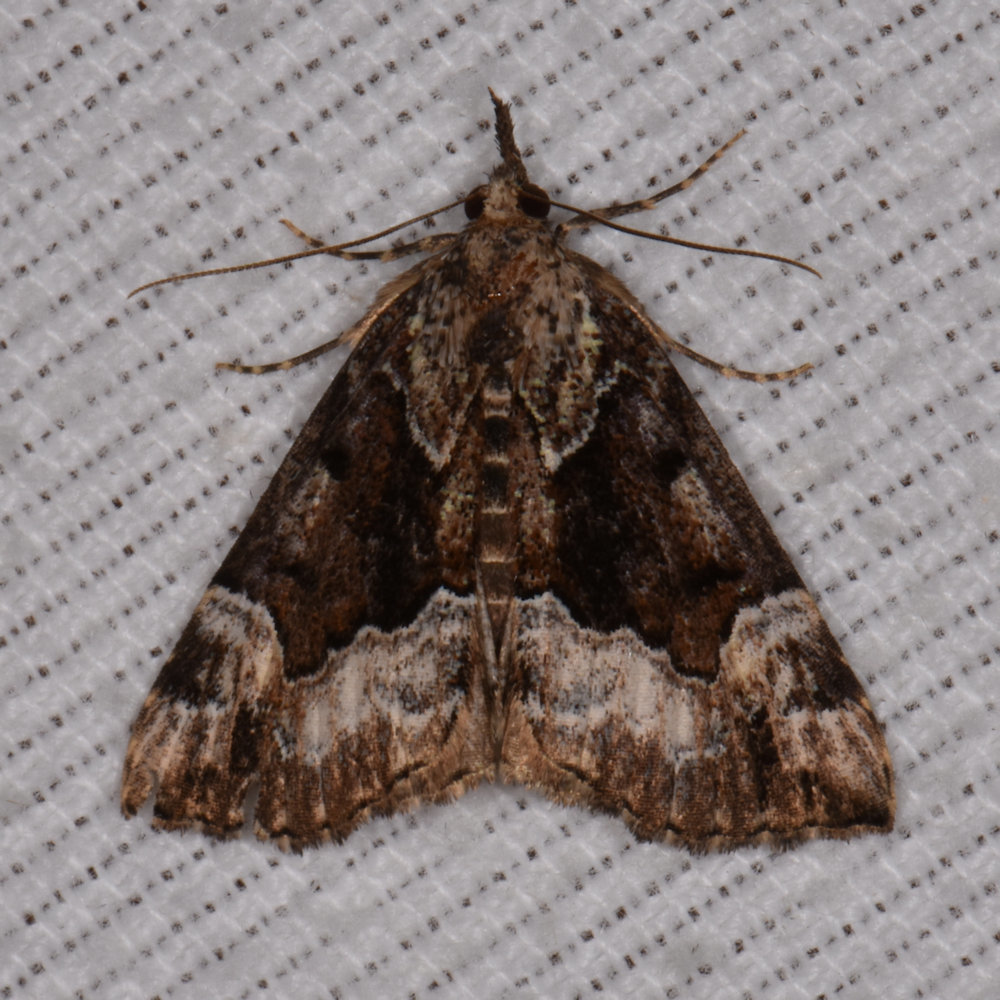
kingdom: Animalia
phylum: Arthropoda
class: Insecta
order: Lepidoptera
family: Erebidae
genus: Hypena
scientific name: Hypena palparia
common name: Mottled bomolocha moth
